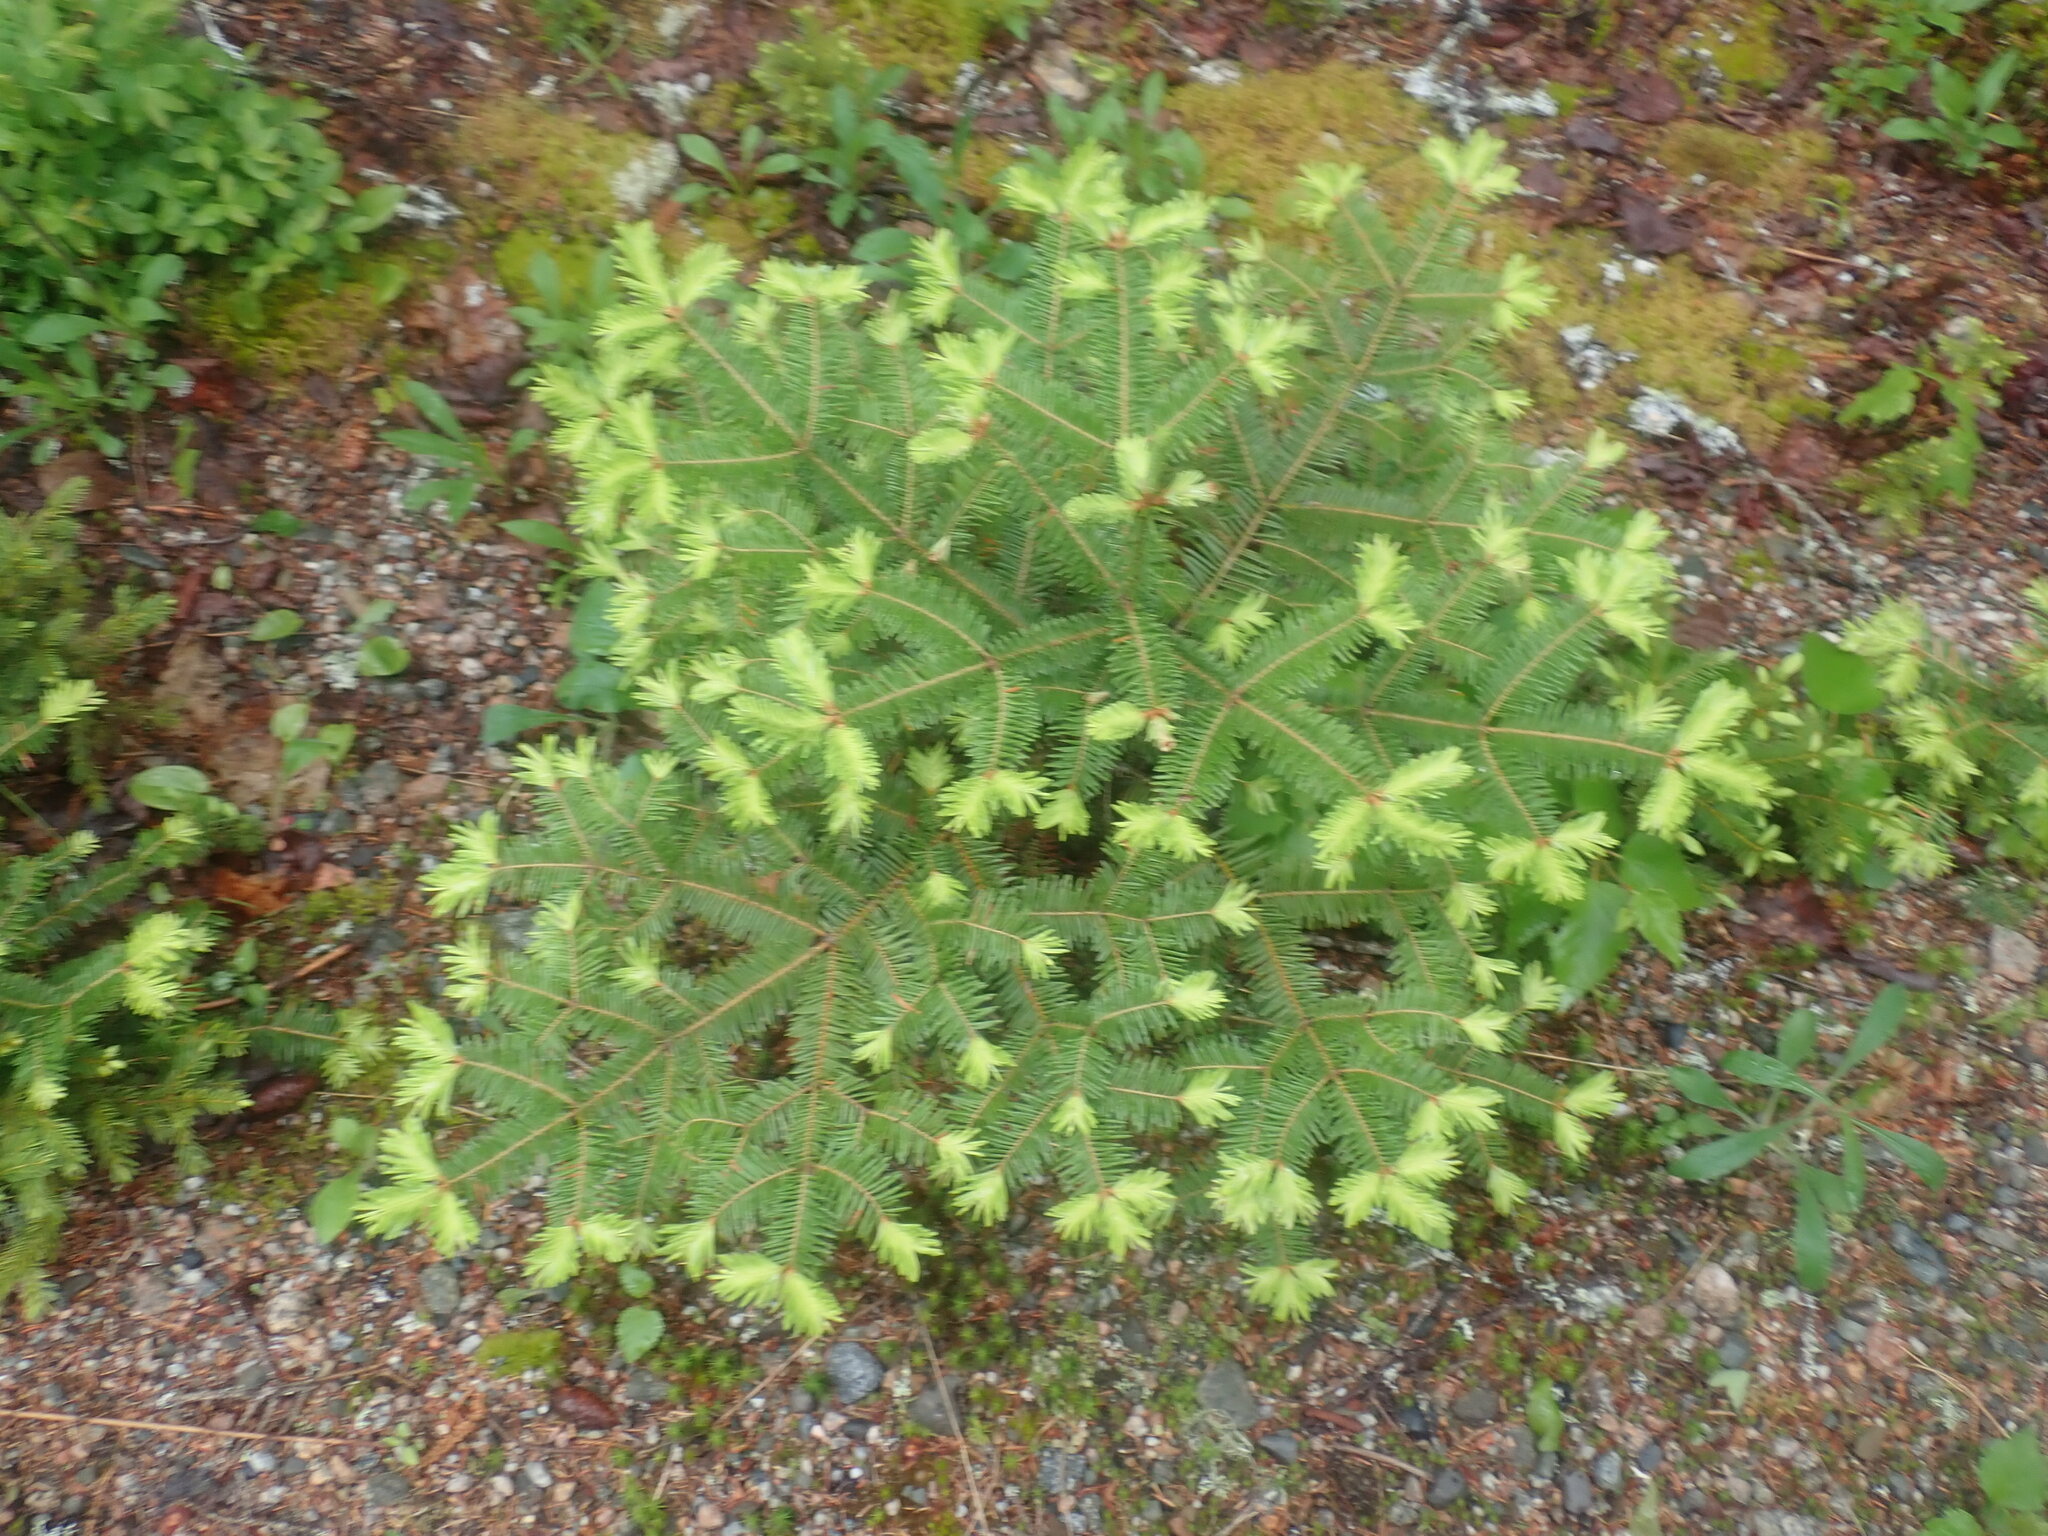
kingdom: Plantae
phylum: Tracheophyta
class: Pinopsida
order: Pinales
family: Pinaceae
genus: Abies
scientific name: Abies balsamea
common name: Balsam fir
